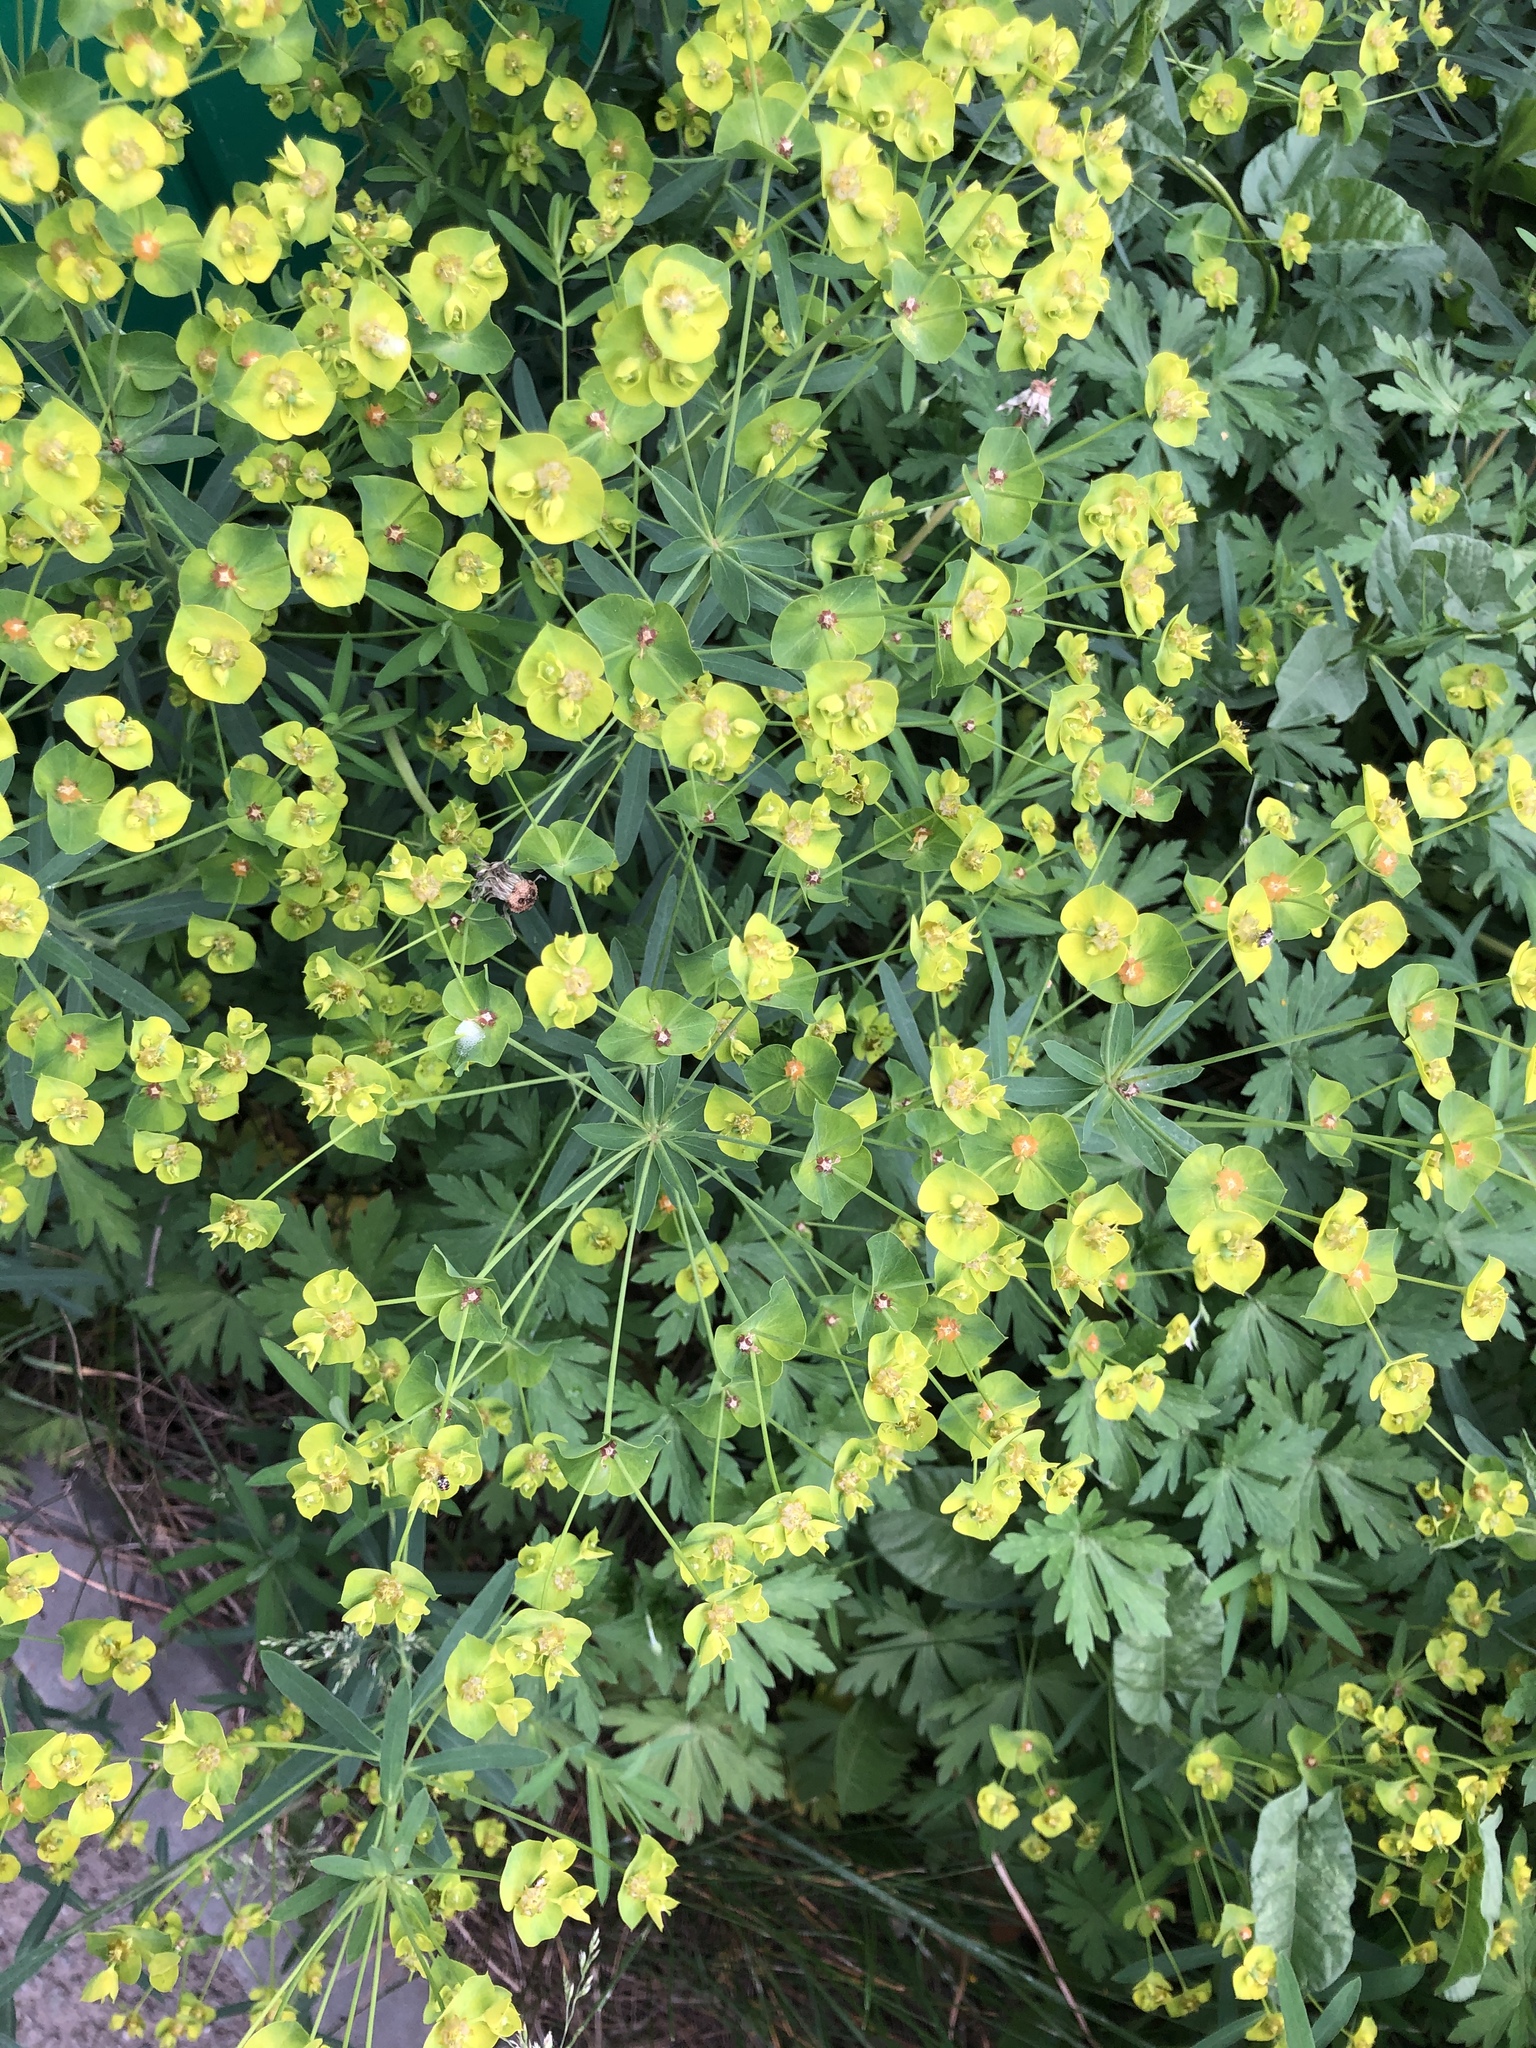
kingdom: Plantae
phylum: Tracheophyta
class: Magnoliopsida
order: Malpighiales
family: Euphorbiaceae
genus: Euphorbia
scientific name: Euphorbia virgata
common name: Leafy spurge
